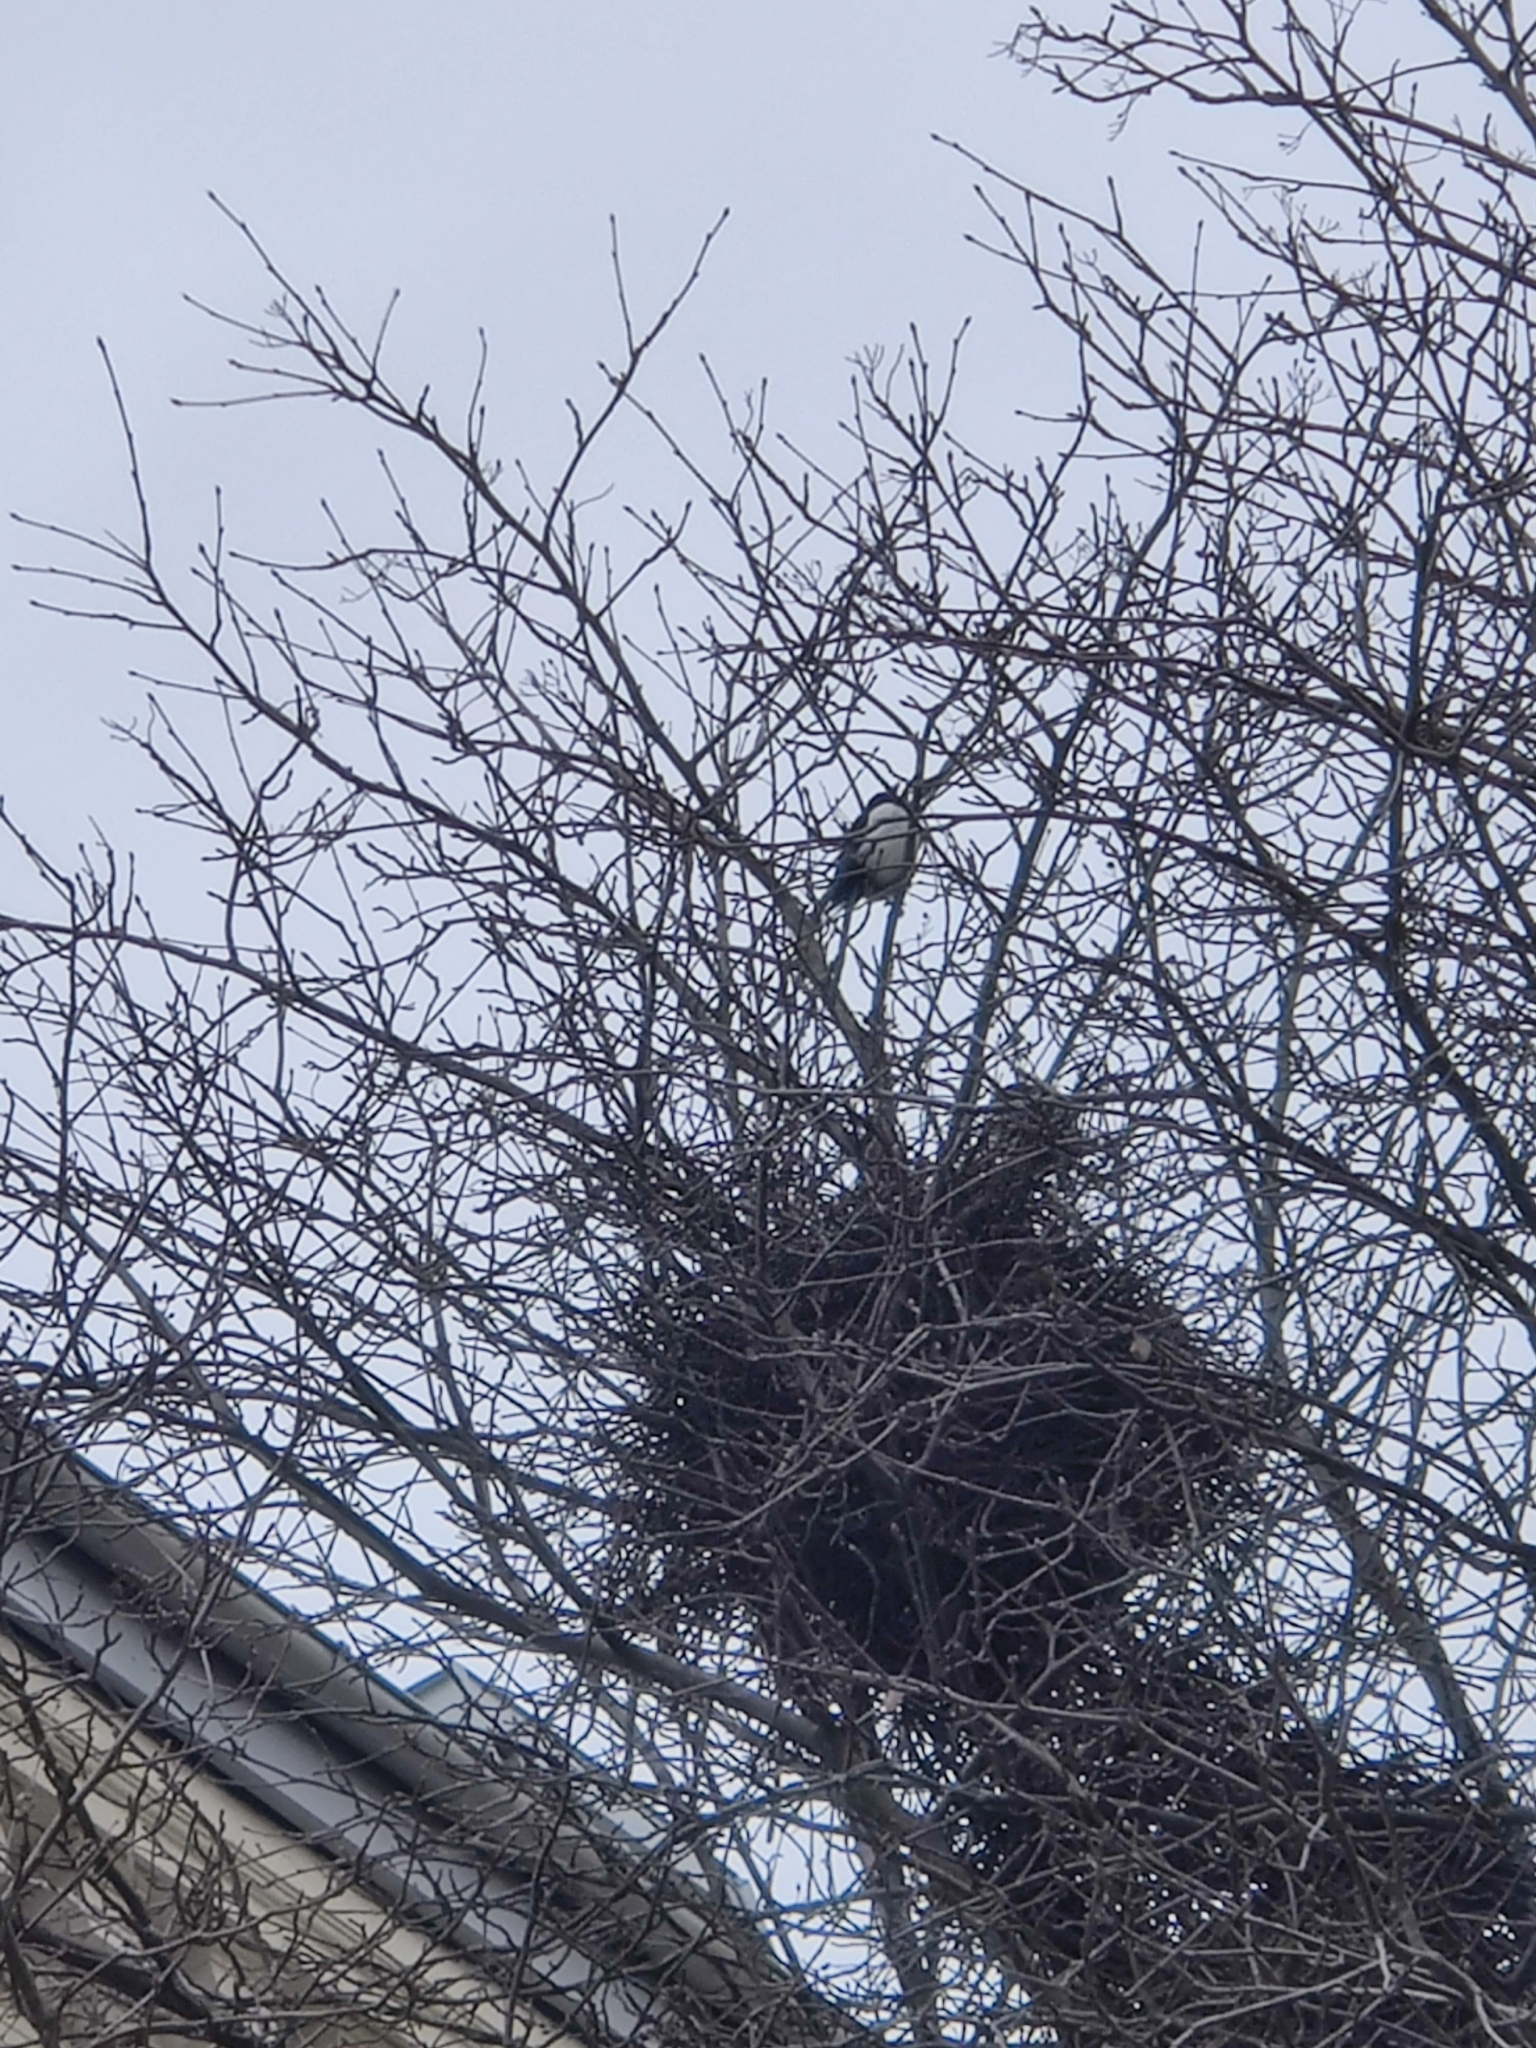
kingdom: Animalia
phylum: Chordata
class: Aves
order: Passeriformes
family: Corvidae
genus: Pica
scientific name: Pica pica
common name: Eurasian magpie
